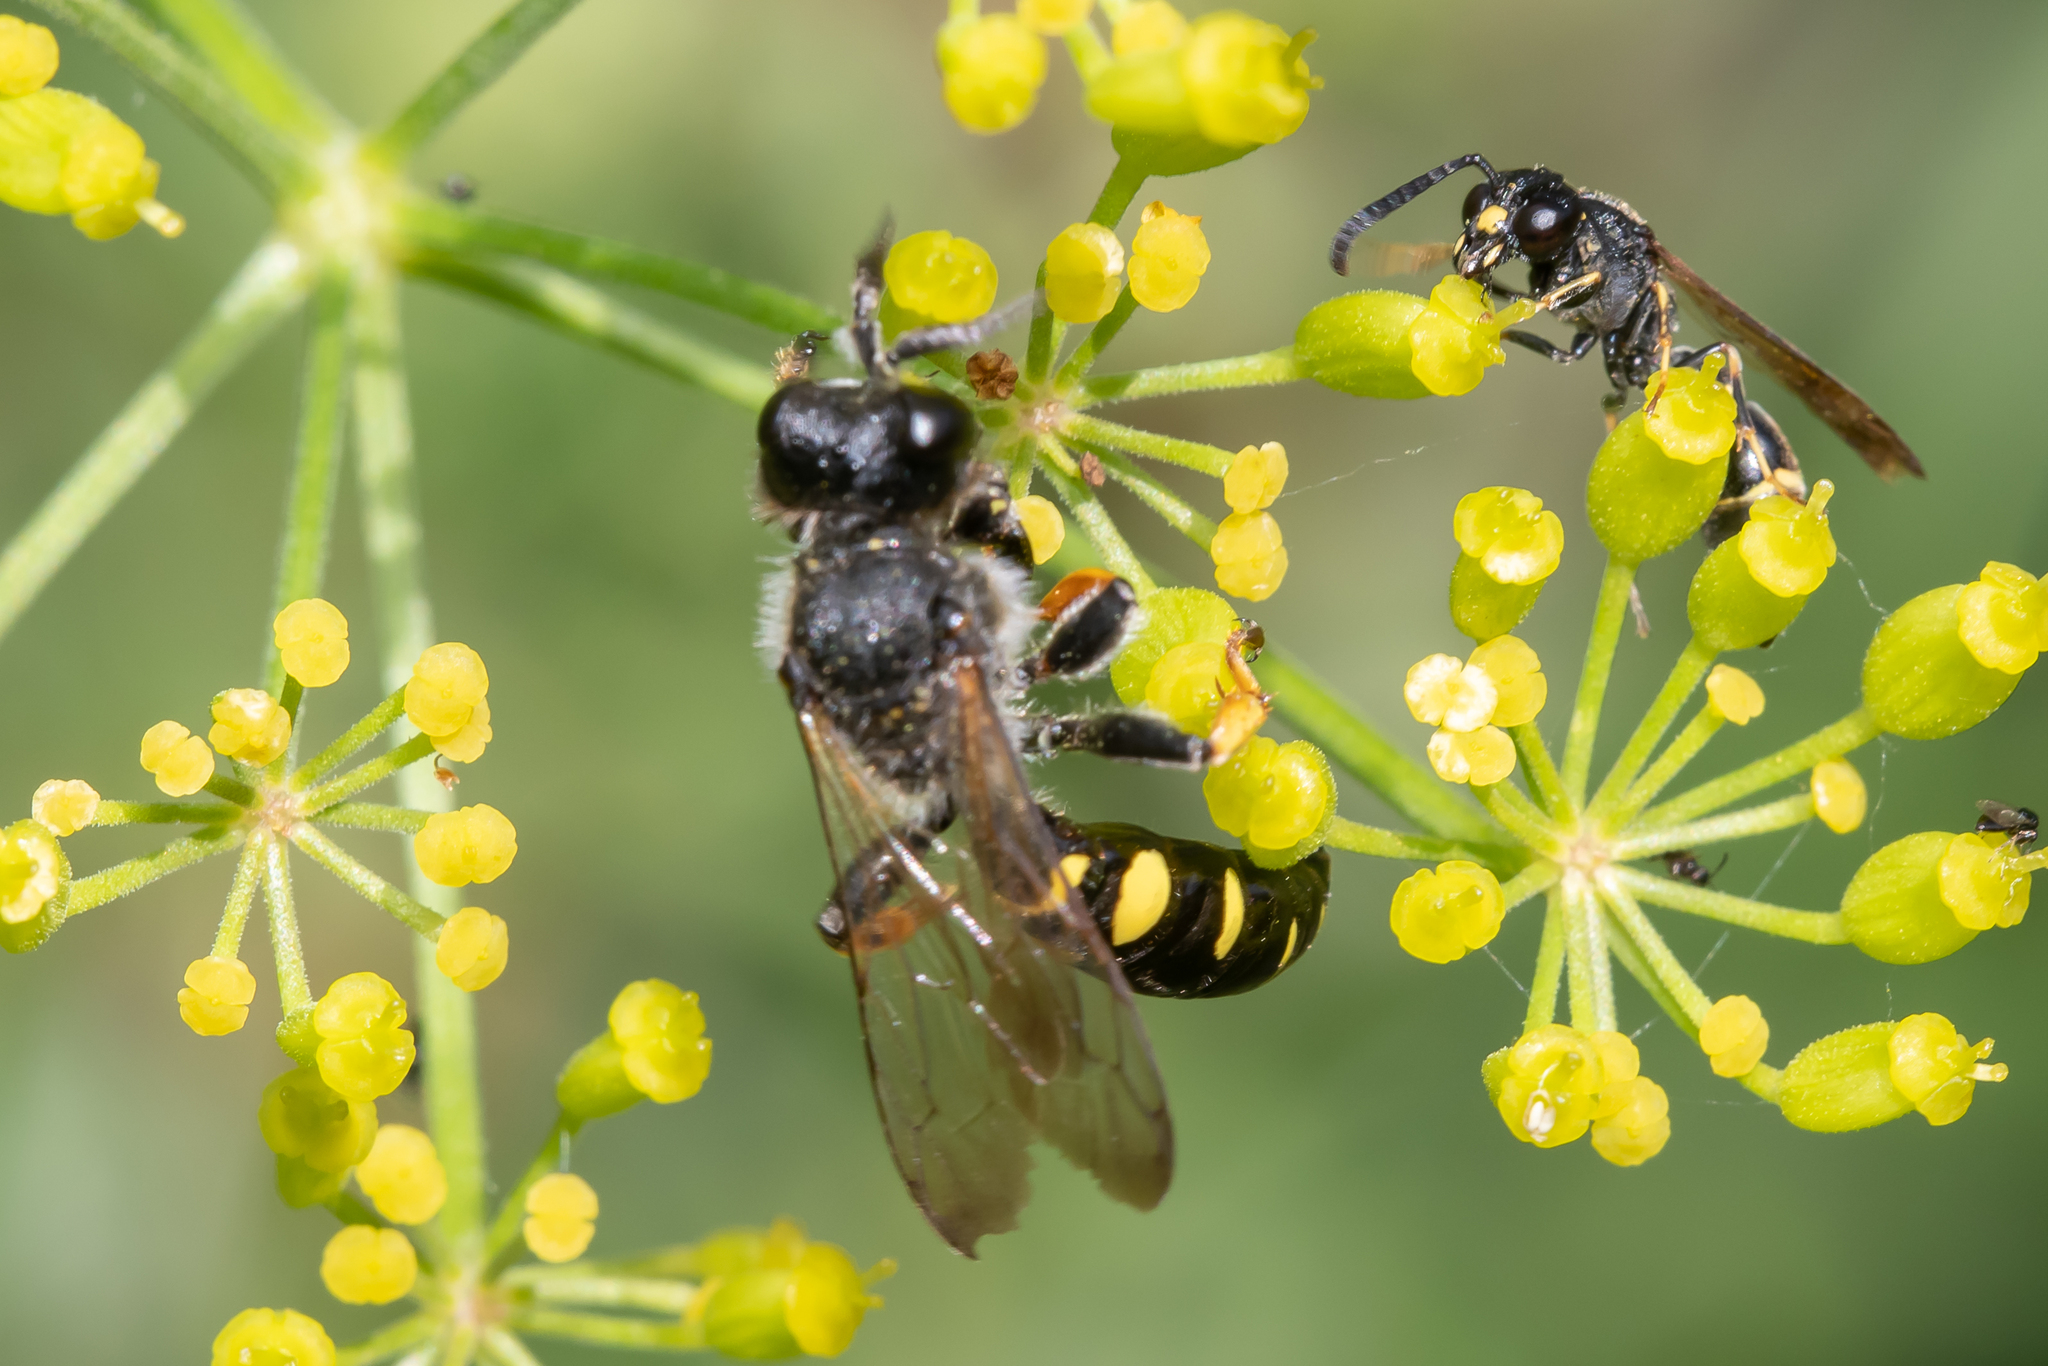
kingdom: Animalia
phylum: Arthropoda
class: Insecta
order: Hymenoptera
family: Crabronidae
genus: Crabro
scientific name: Crabro cribrarius
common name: Slender bodied digger wasp
